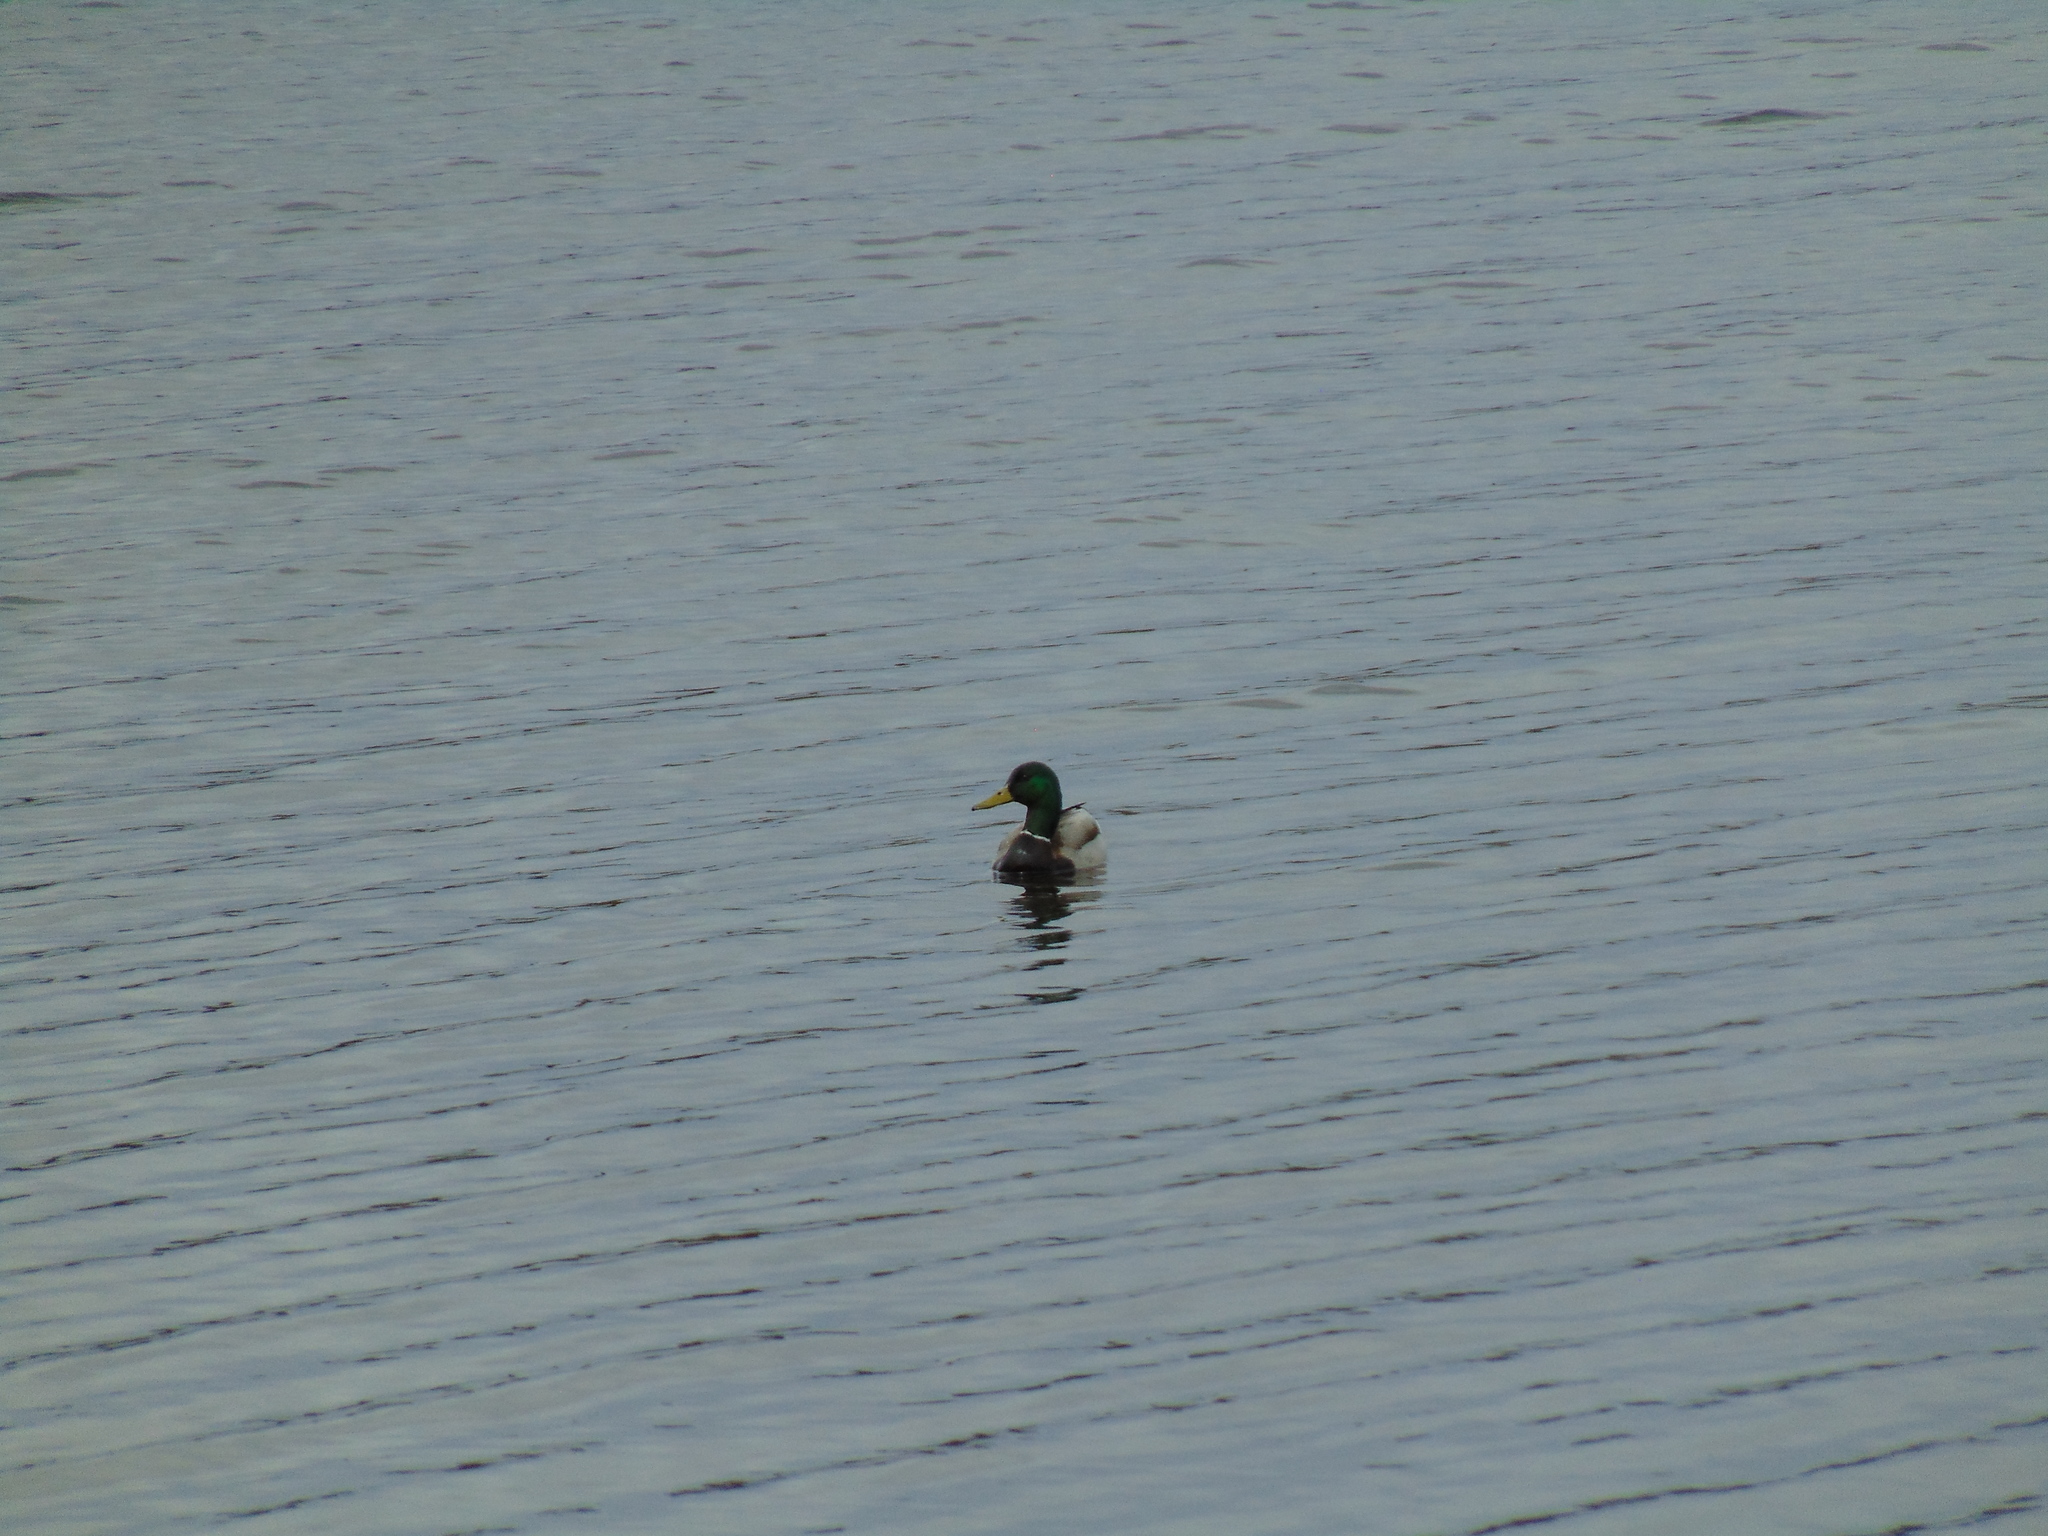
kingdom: Animalia
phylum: Chordata
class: Aves
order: Anseriformes
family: Anatidae
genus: Anas
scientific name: Anas platyrhynchos
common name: Mallard
